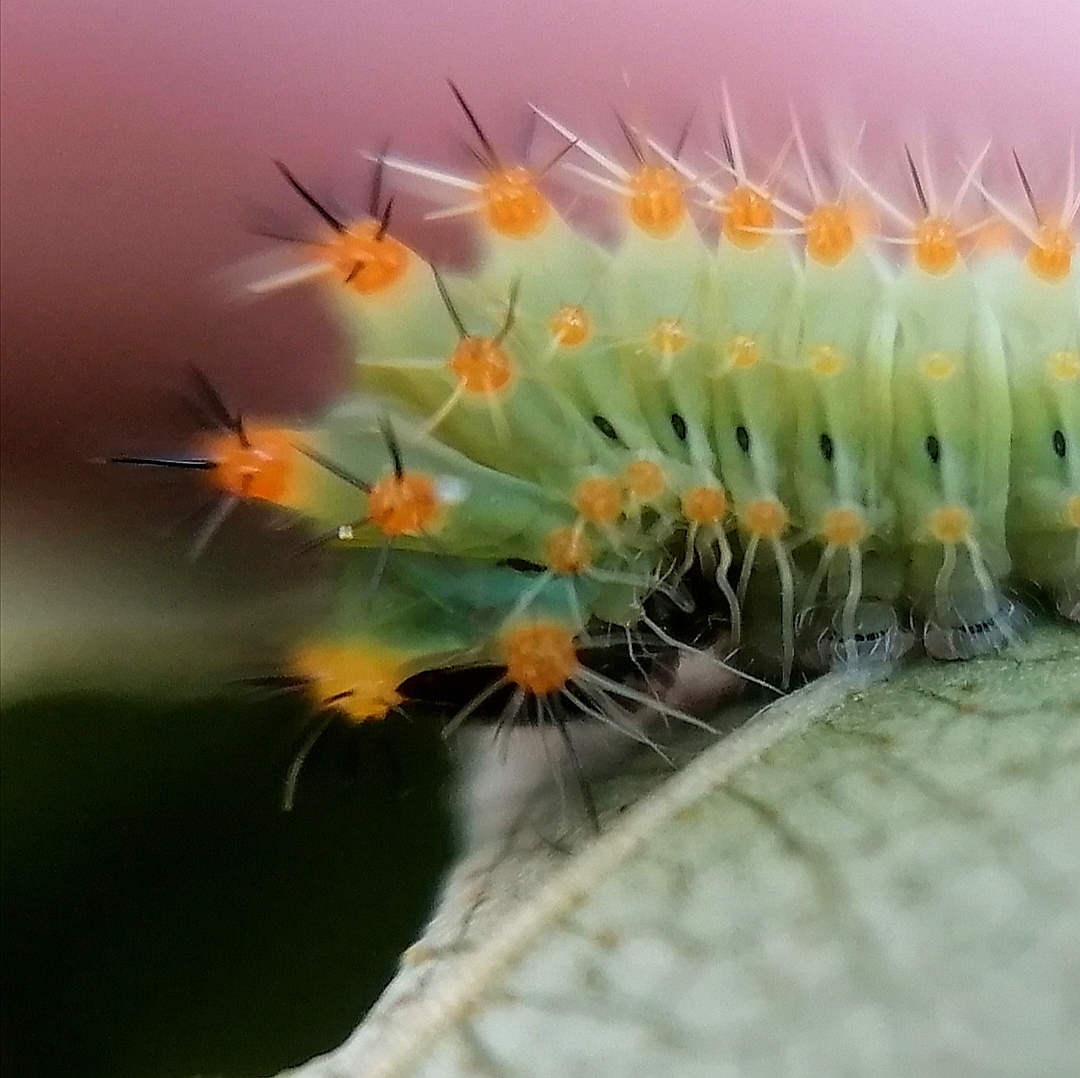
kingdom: Animalia
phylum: Arthropoda
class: Insecta
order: Lepidoptera
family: Saturniidae
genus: Antheraea
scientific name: Antheraea polyphemus
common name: Polyphemus moth
